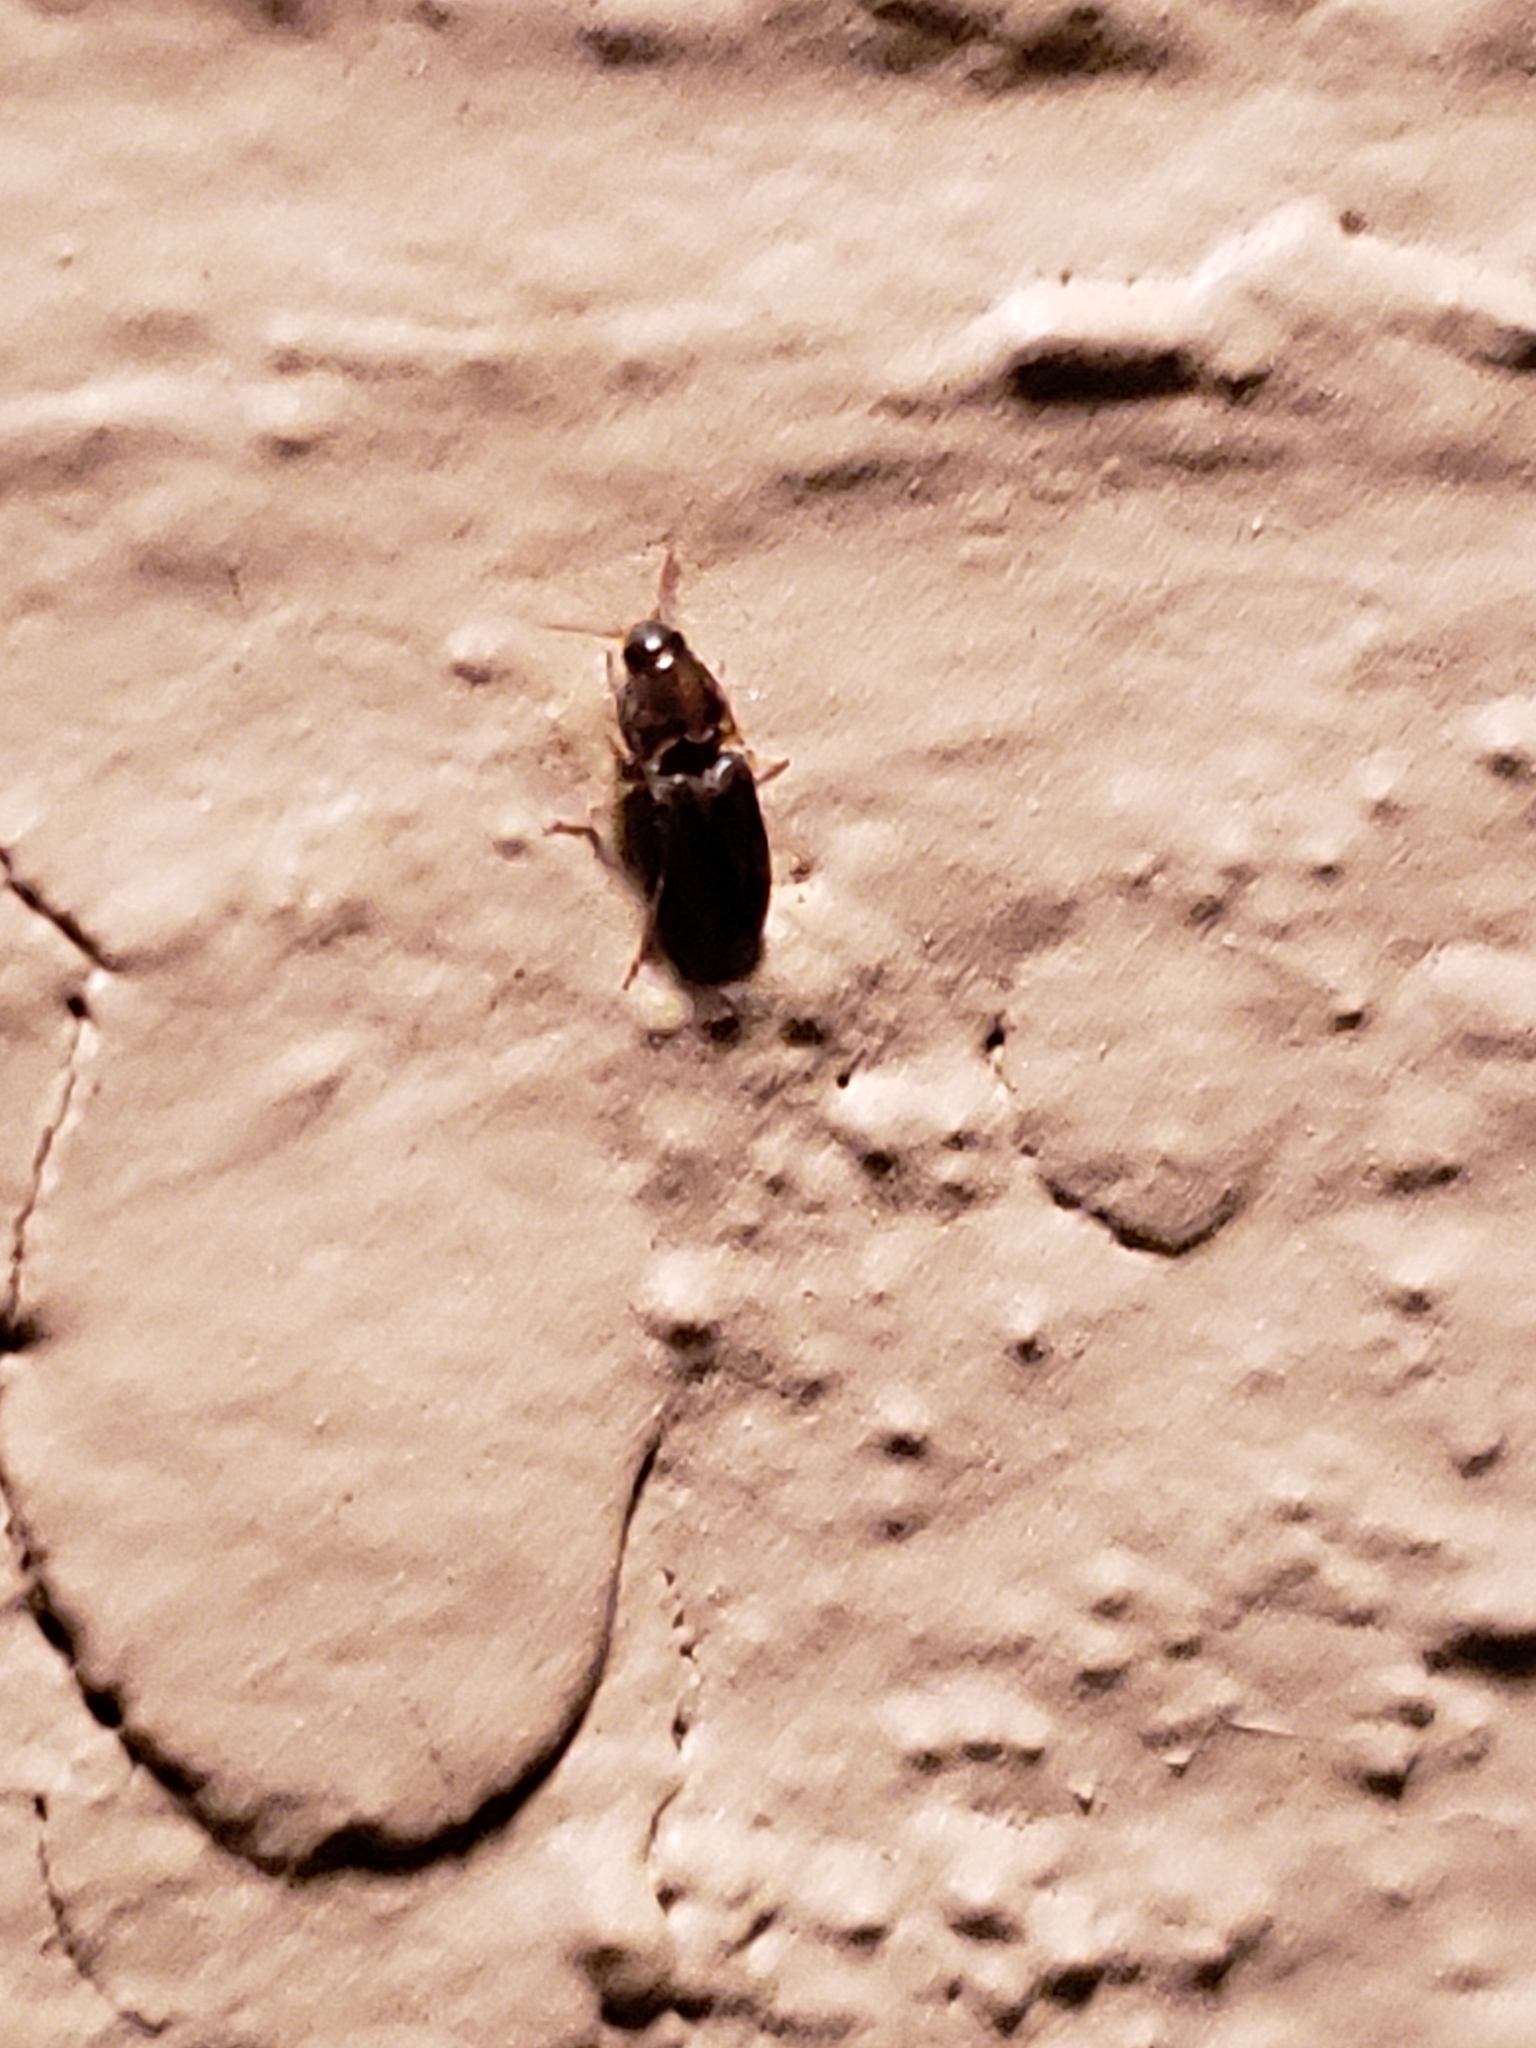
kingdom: Animalia
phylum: Arthropoda
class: Insecta
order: Coleoptera
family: Elateridae
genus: Monocrepidius
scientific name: Monocrepidius bellus
